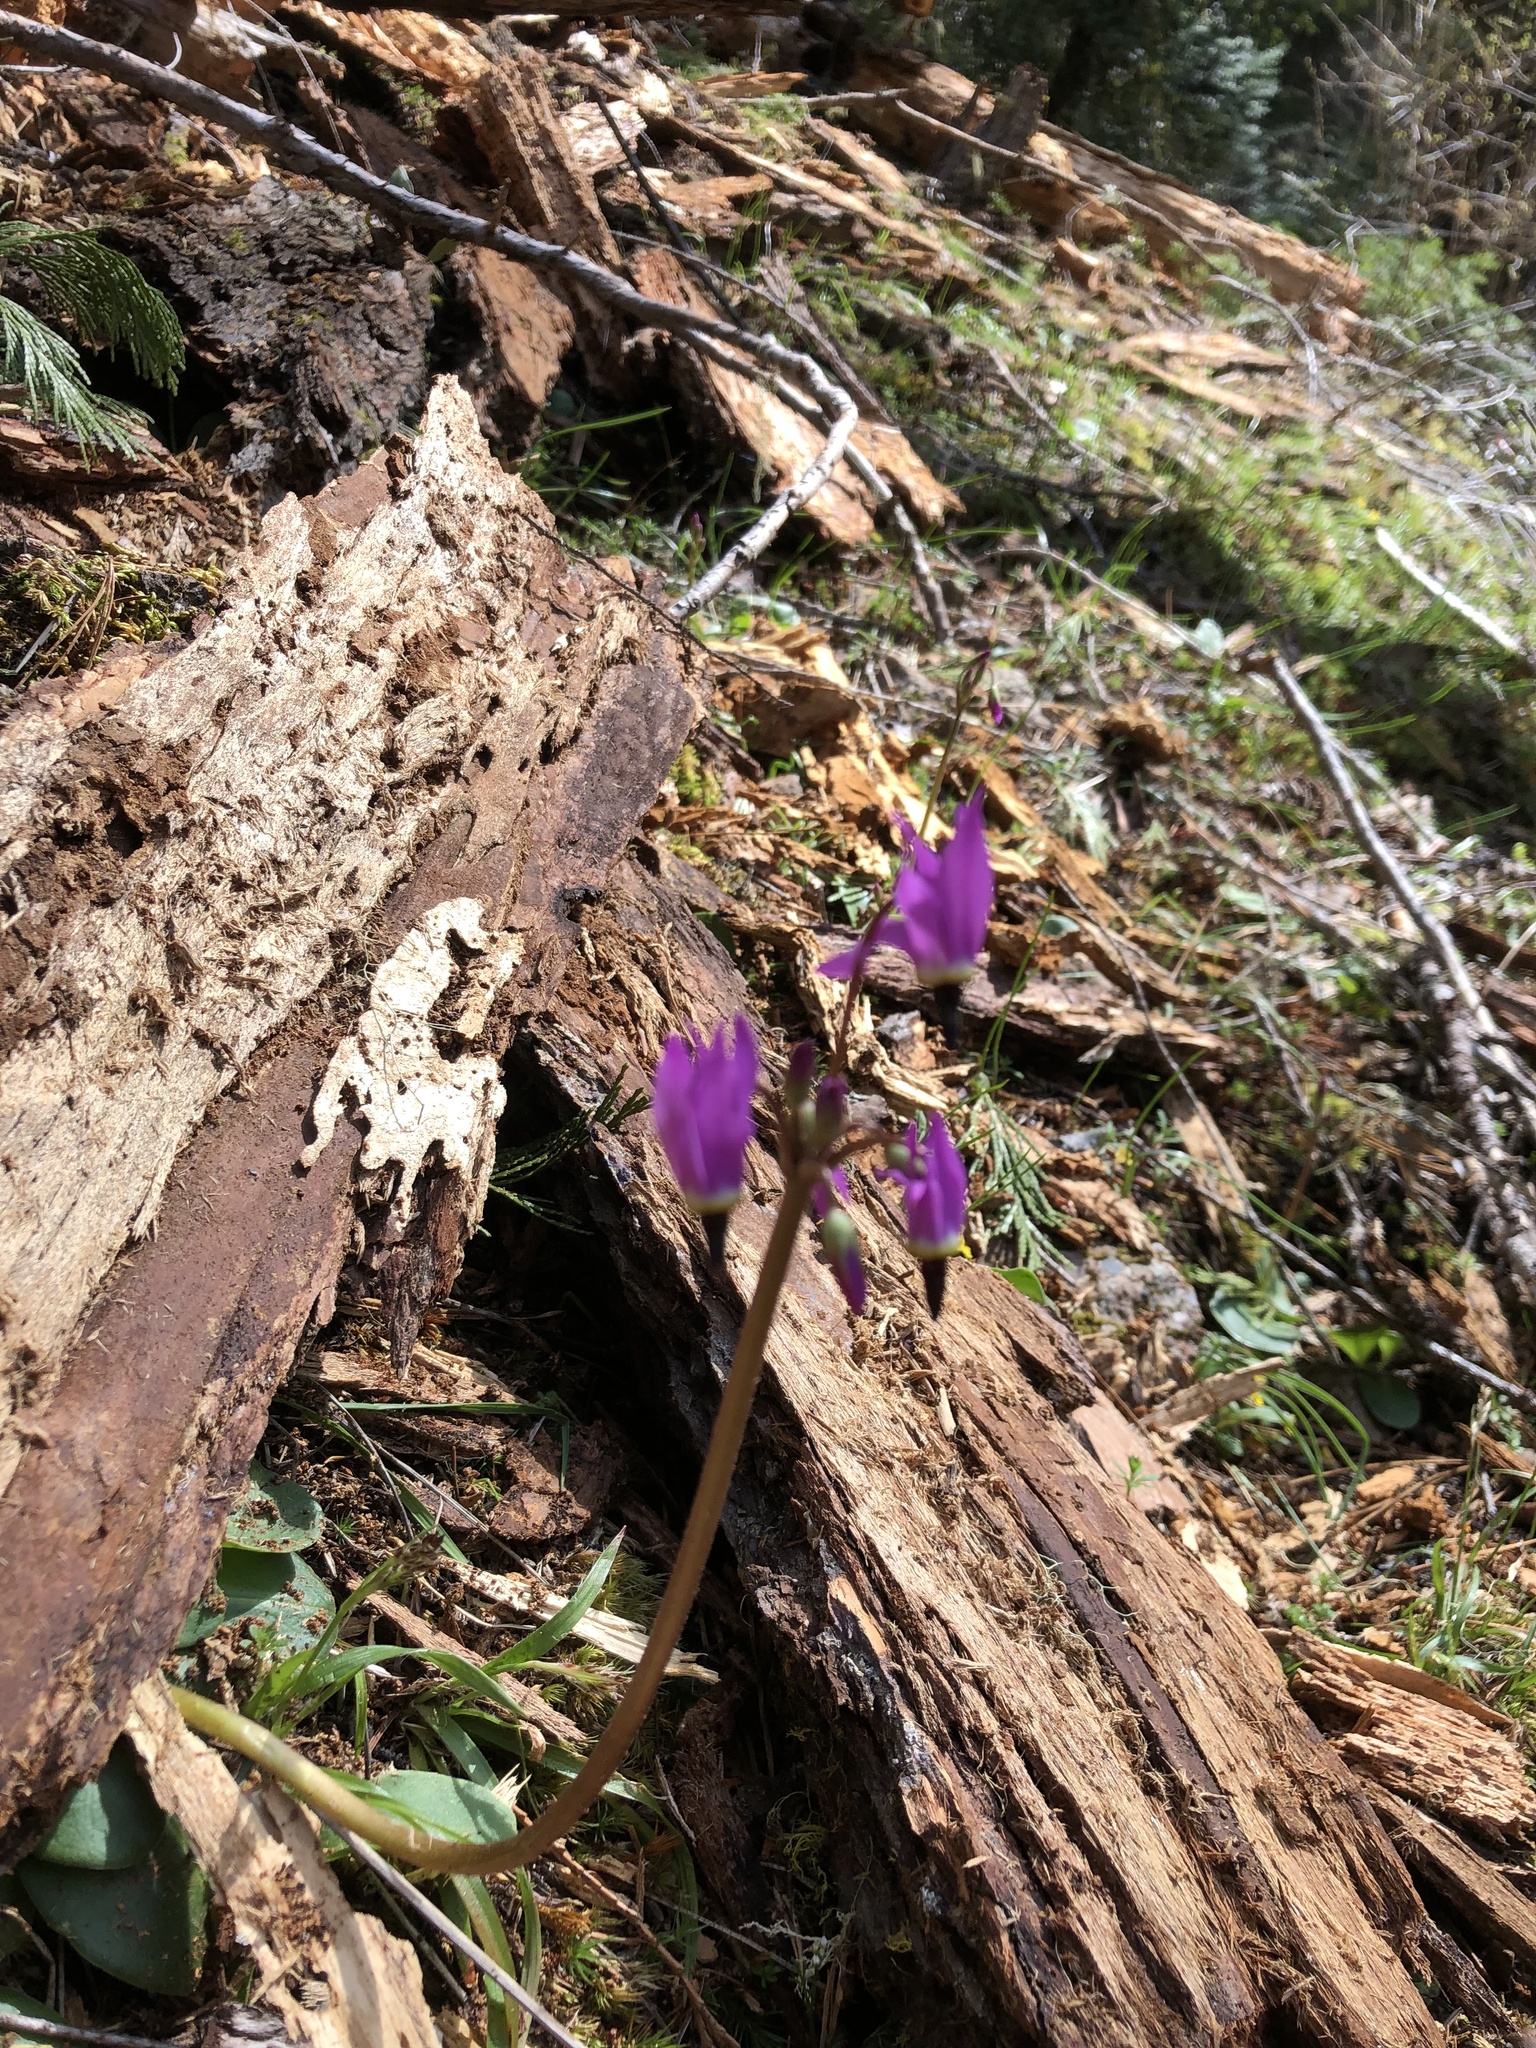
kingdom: Plantae
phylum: Tracheophyta
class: Magnoliopsida
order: Ericales
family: Primulaceae
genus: Dodecatheon
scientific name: Dodecatheon hendersonii
